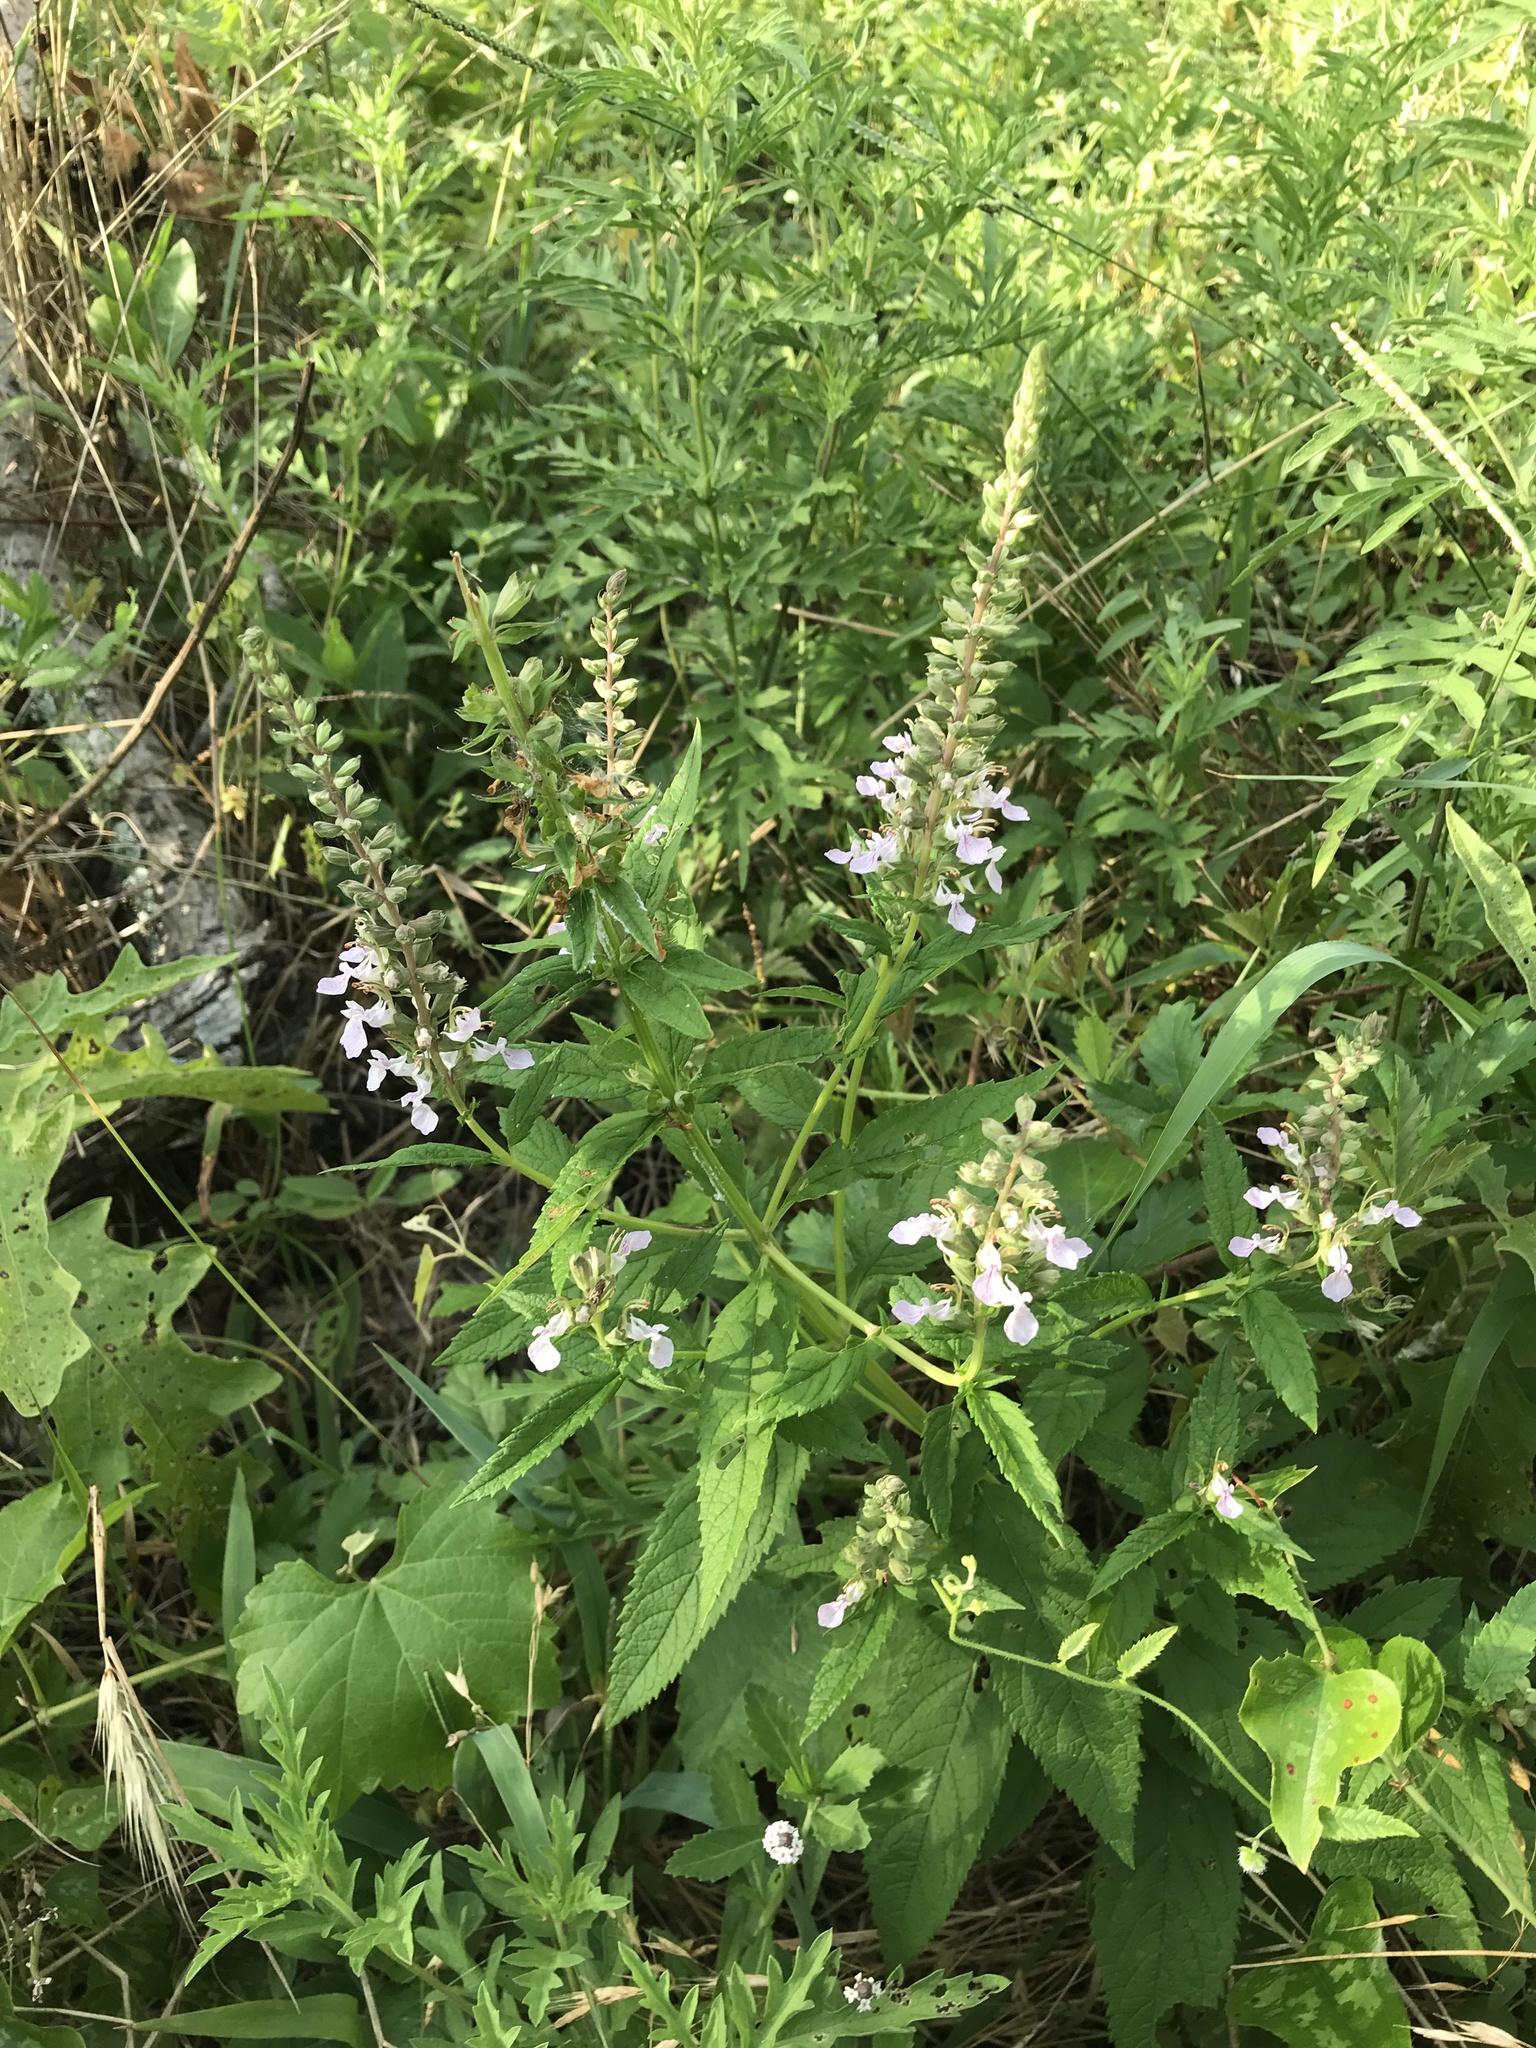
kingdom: Plantae
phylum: Tracheophyta
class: Magnoliopsida
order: Lamiales
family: Lamiaceae
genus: Teucrium
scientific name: Teucrium canadense
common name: American germander
